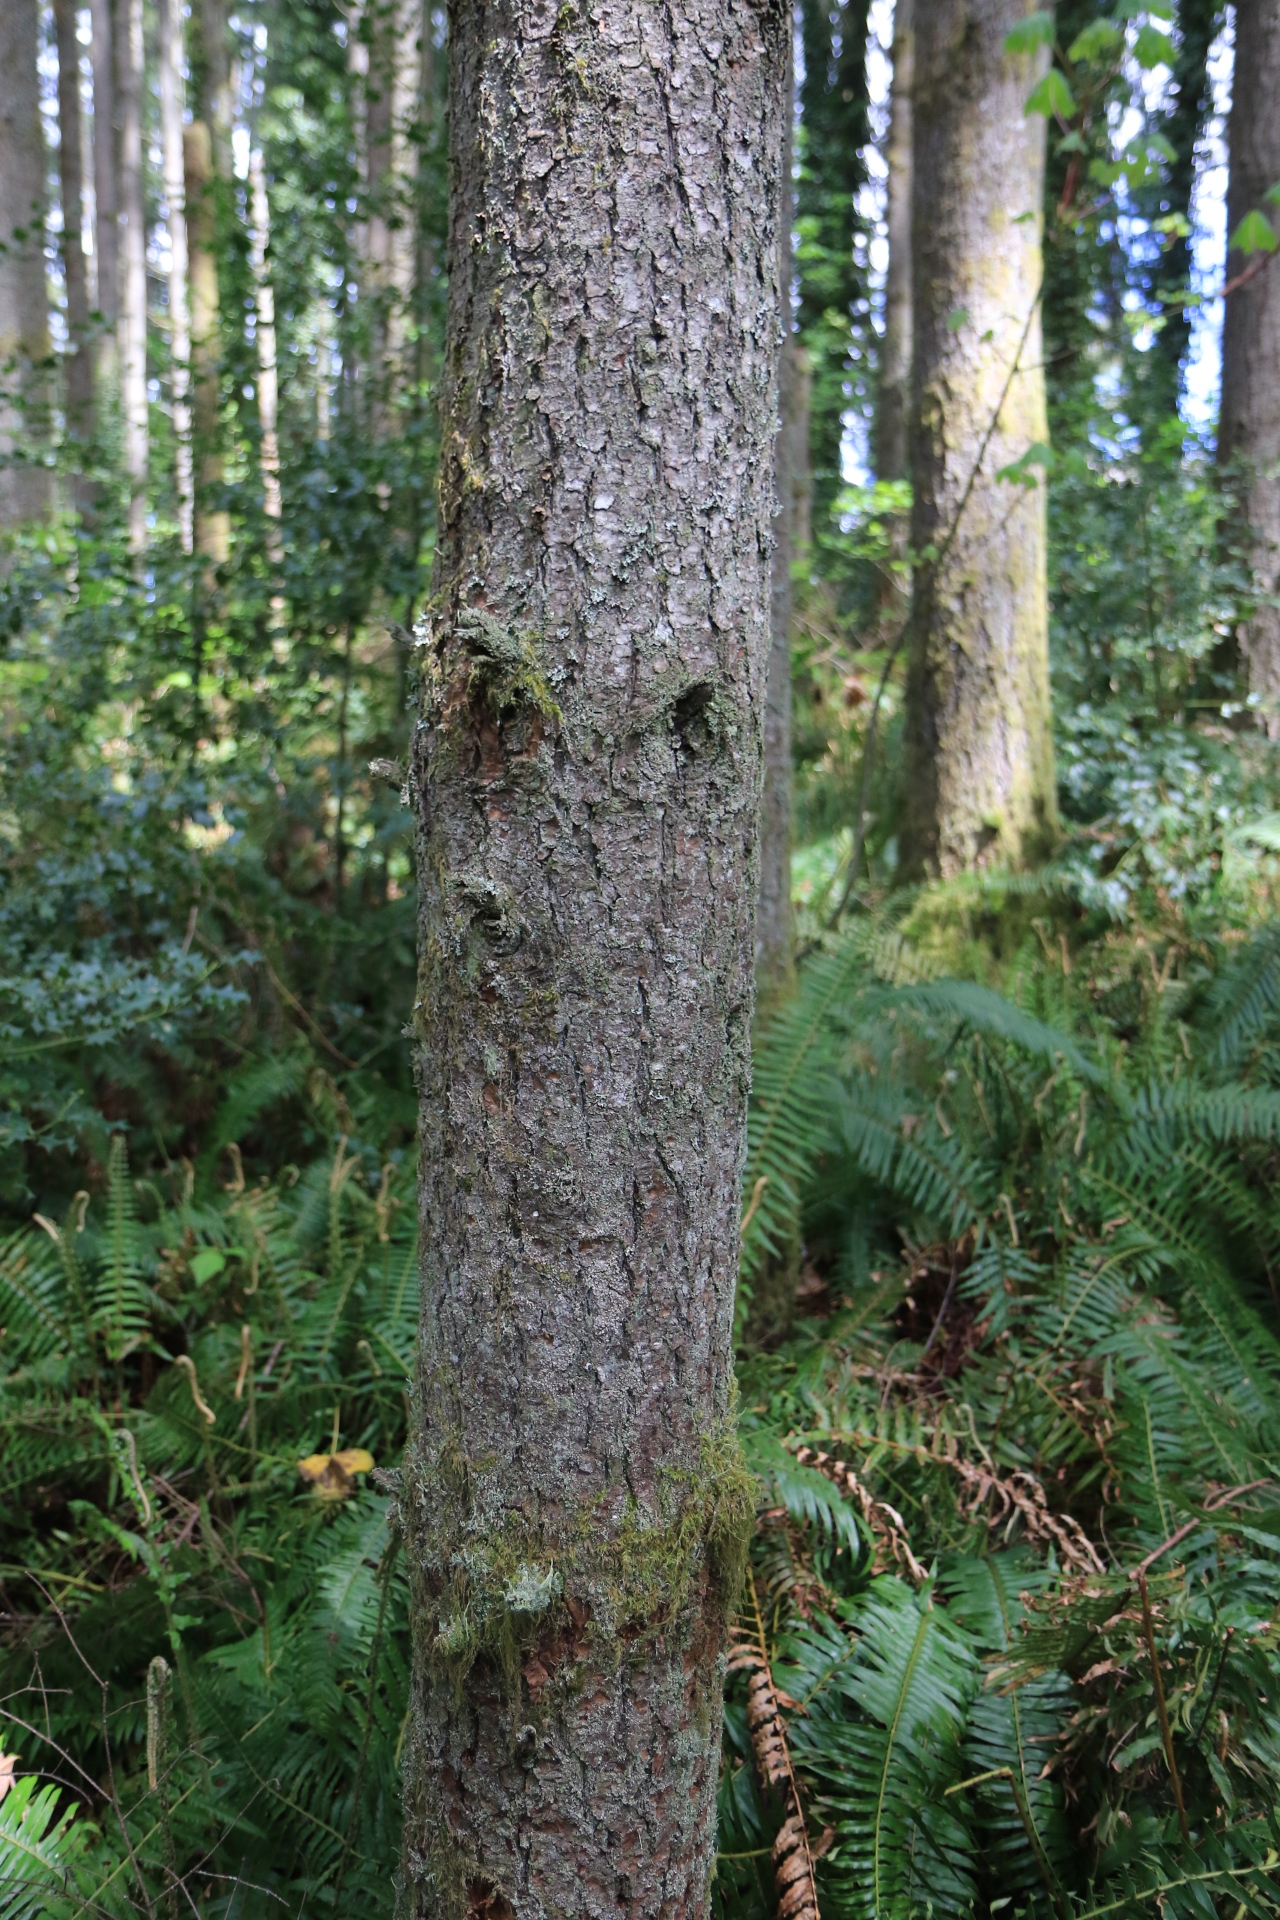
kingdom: Plantae
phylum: Tracheophyta
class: Pinopsida
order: Pinales
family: Pinaceae
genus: Pseudotsuga
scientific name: Pseudotsuga menziesii
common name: Douglas fir
